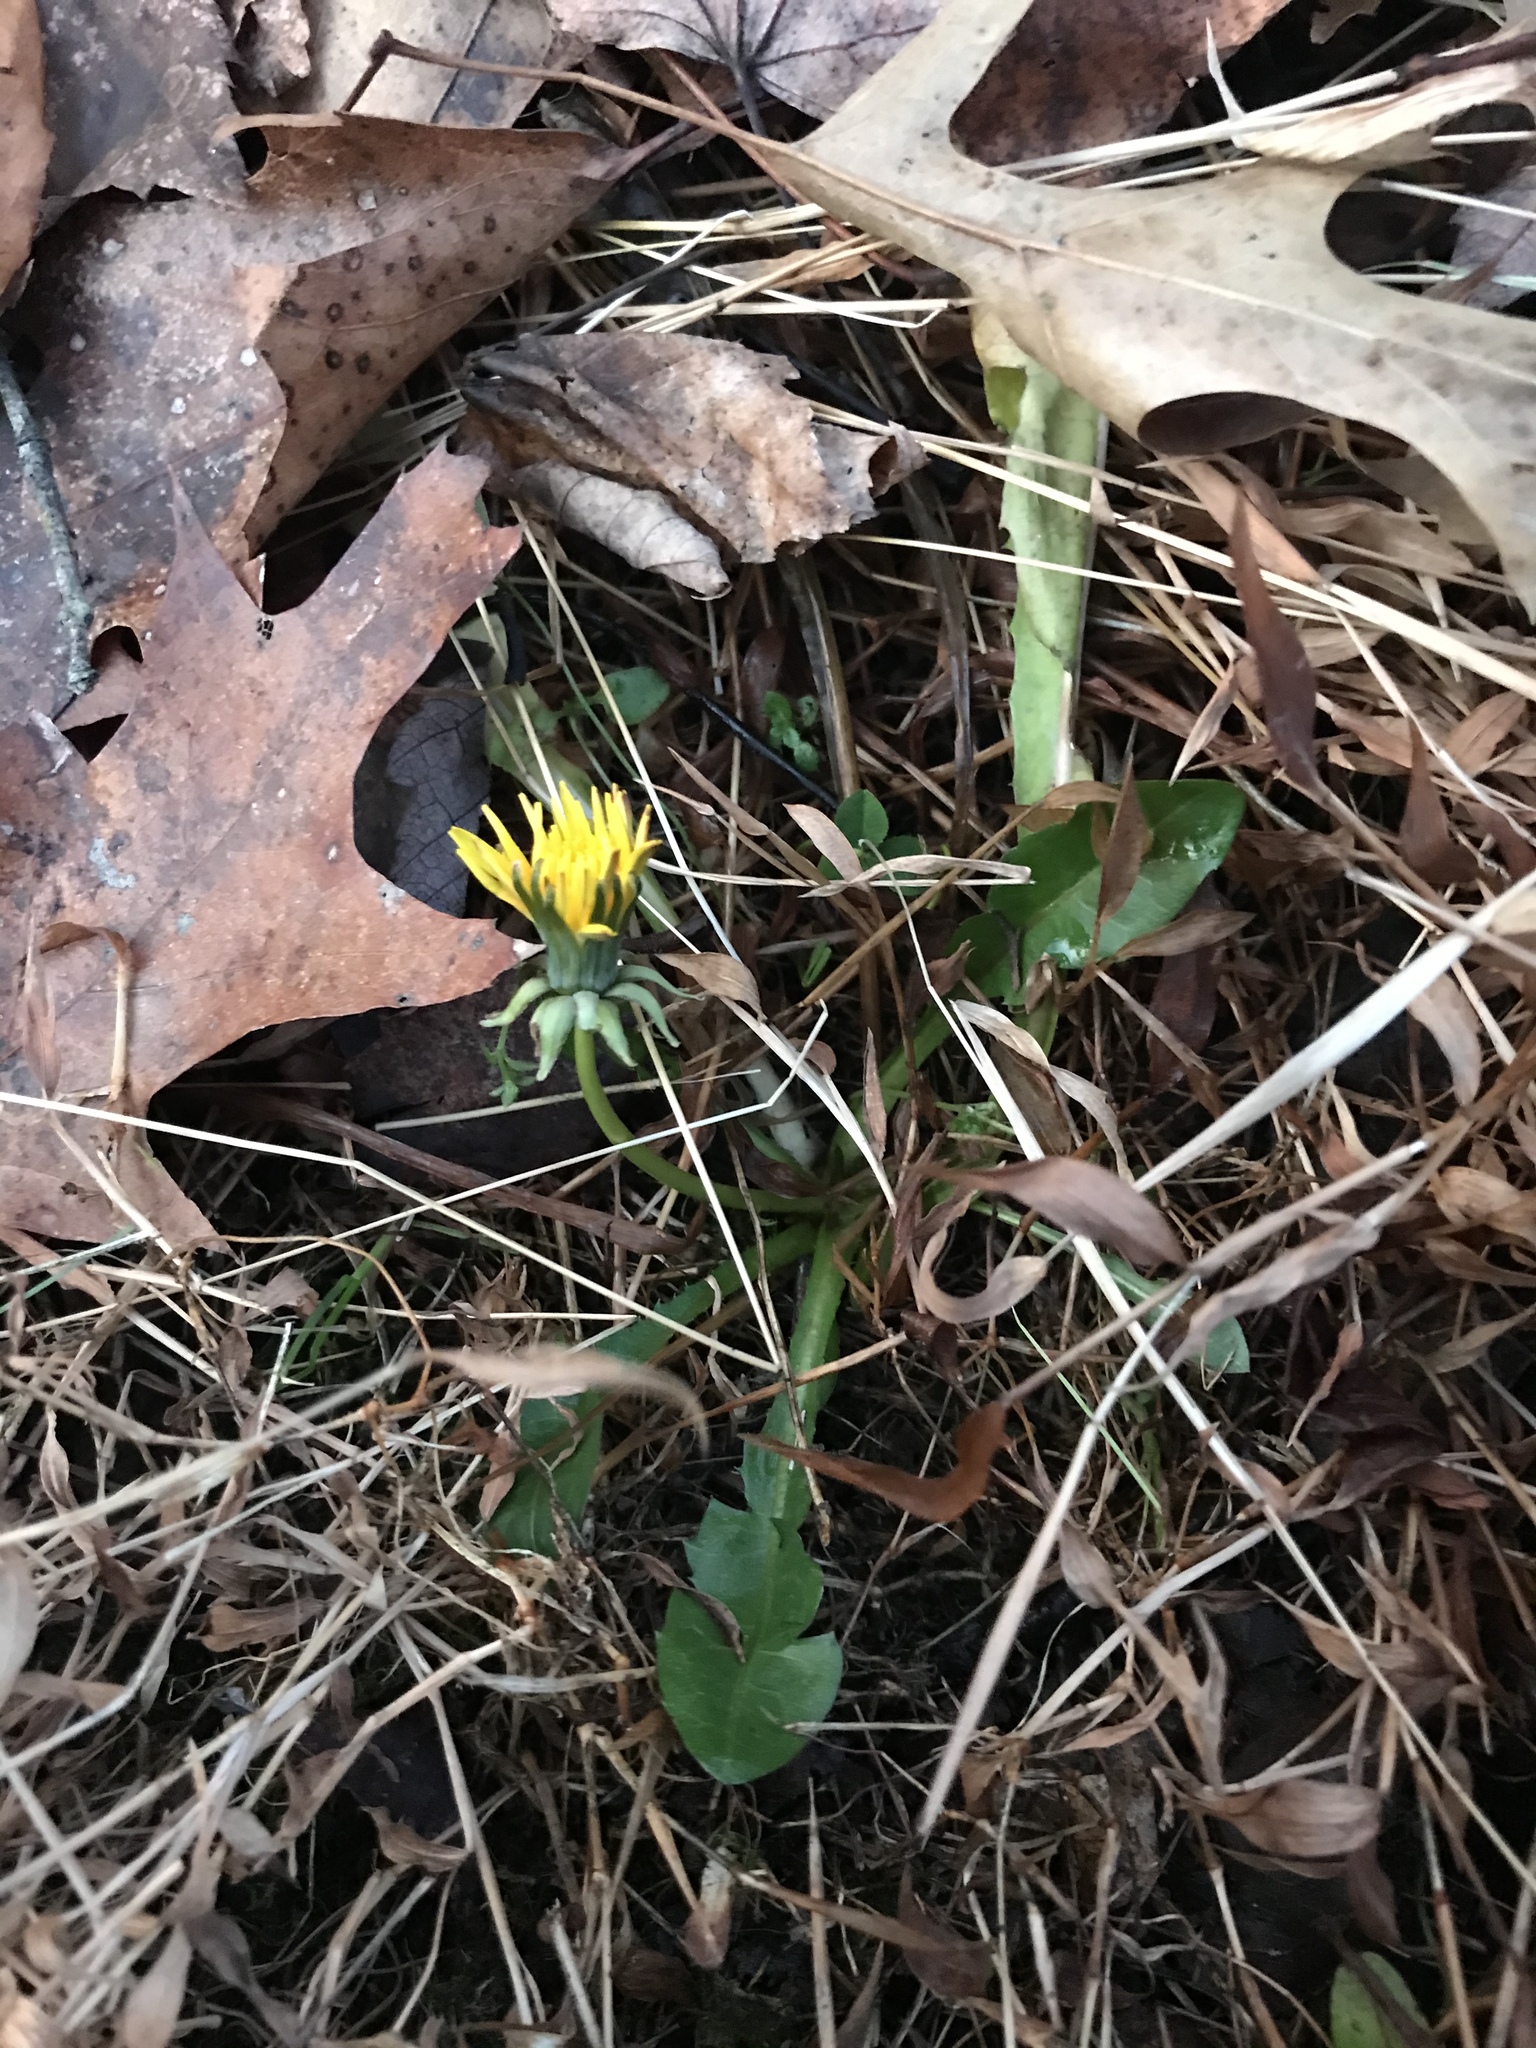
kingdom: Plantae
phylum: Tracheophyta
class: Magnoliopsida
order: Asterales
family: Asteraceae
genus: Taraxacum
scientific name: Taraxacum officinale
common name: Common dandelion
